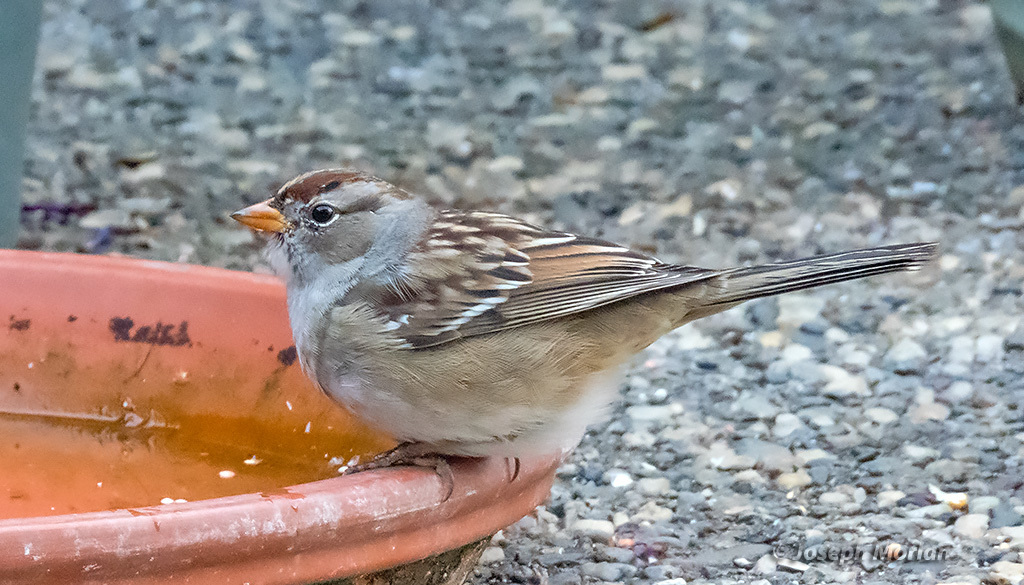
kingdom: Animalia
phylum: Chordata
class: Aves
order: Passeriformes
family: Passerellidae
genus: Zonotrichia
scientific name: Zonotrichia leucophrys
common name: White-crowned sparrow
